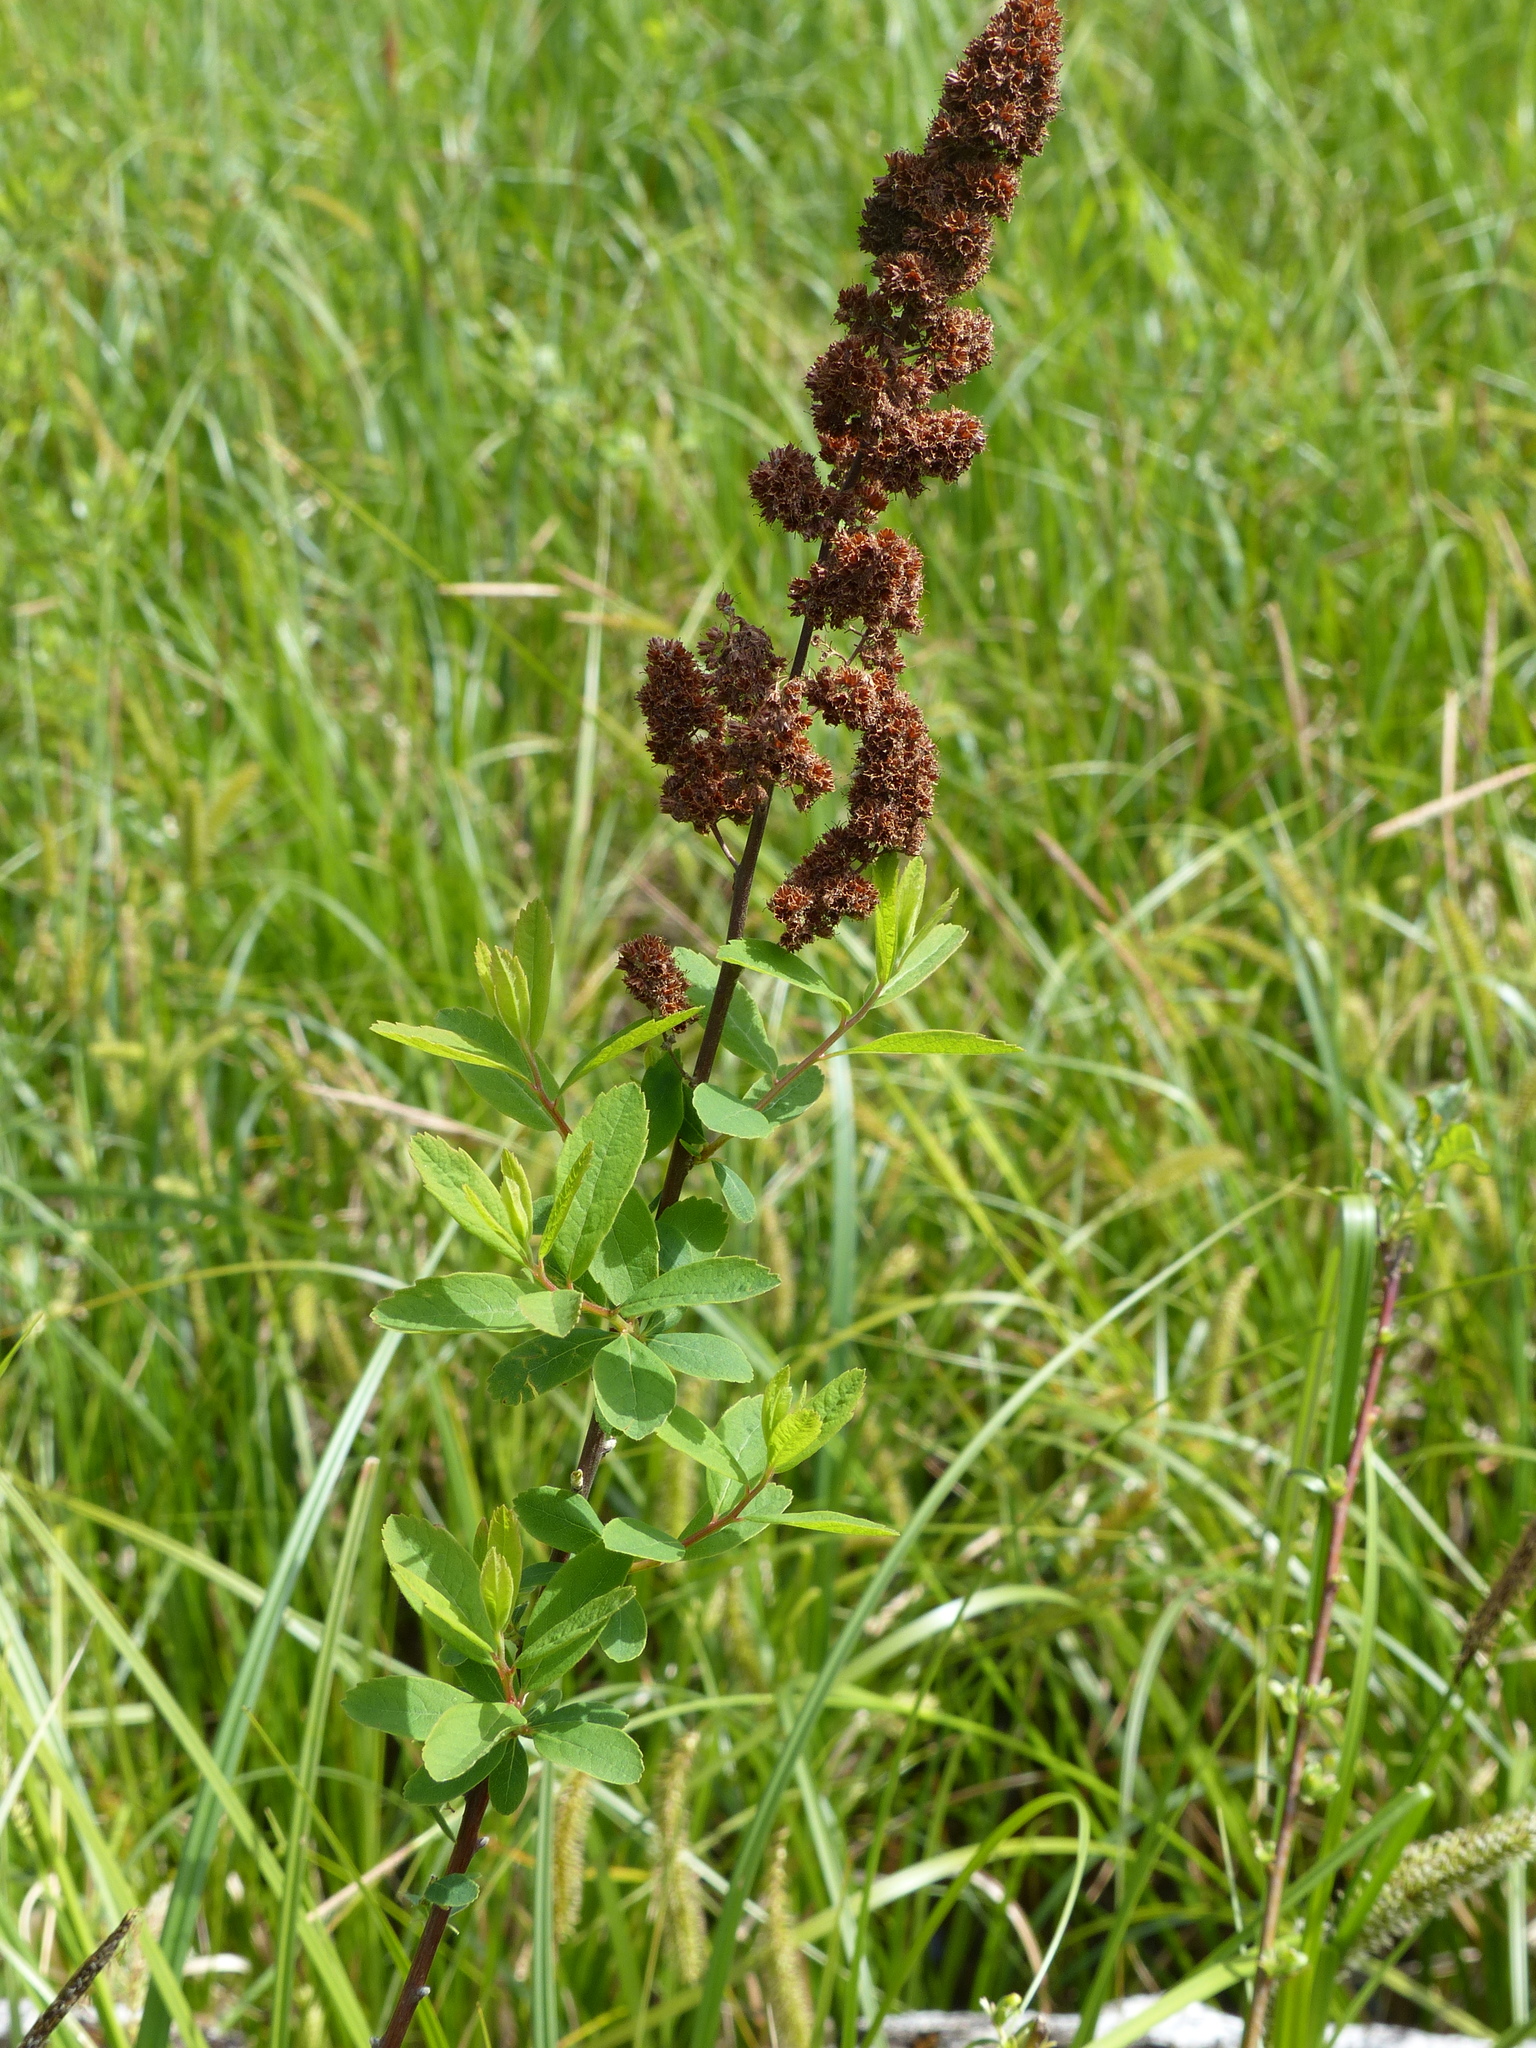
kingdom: Plantae
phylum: Tracheophyta
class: Magnoliopsida
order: Rosales
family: Rosaceae
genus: Spiraea
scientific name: Spiraea douglasii
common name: Steeplebush
